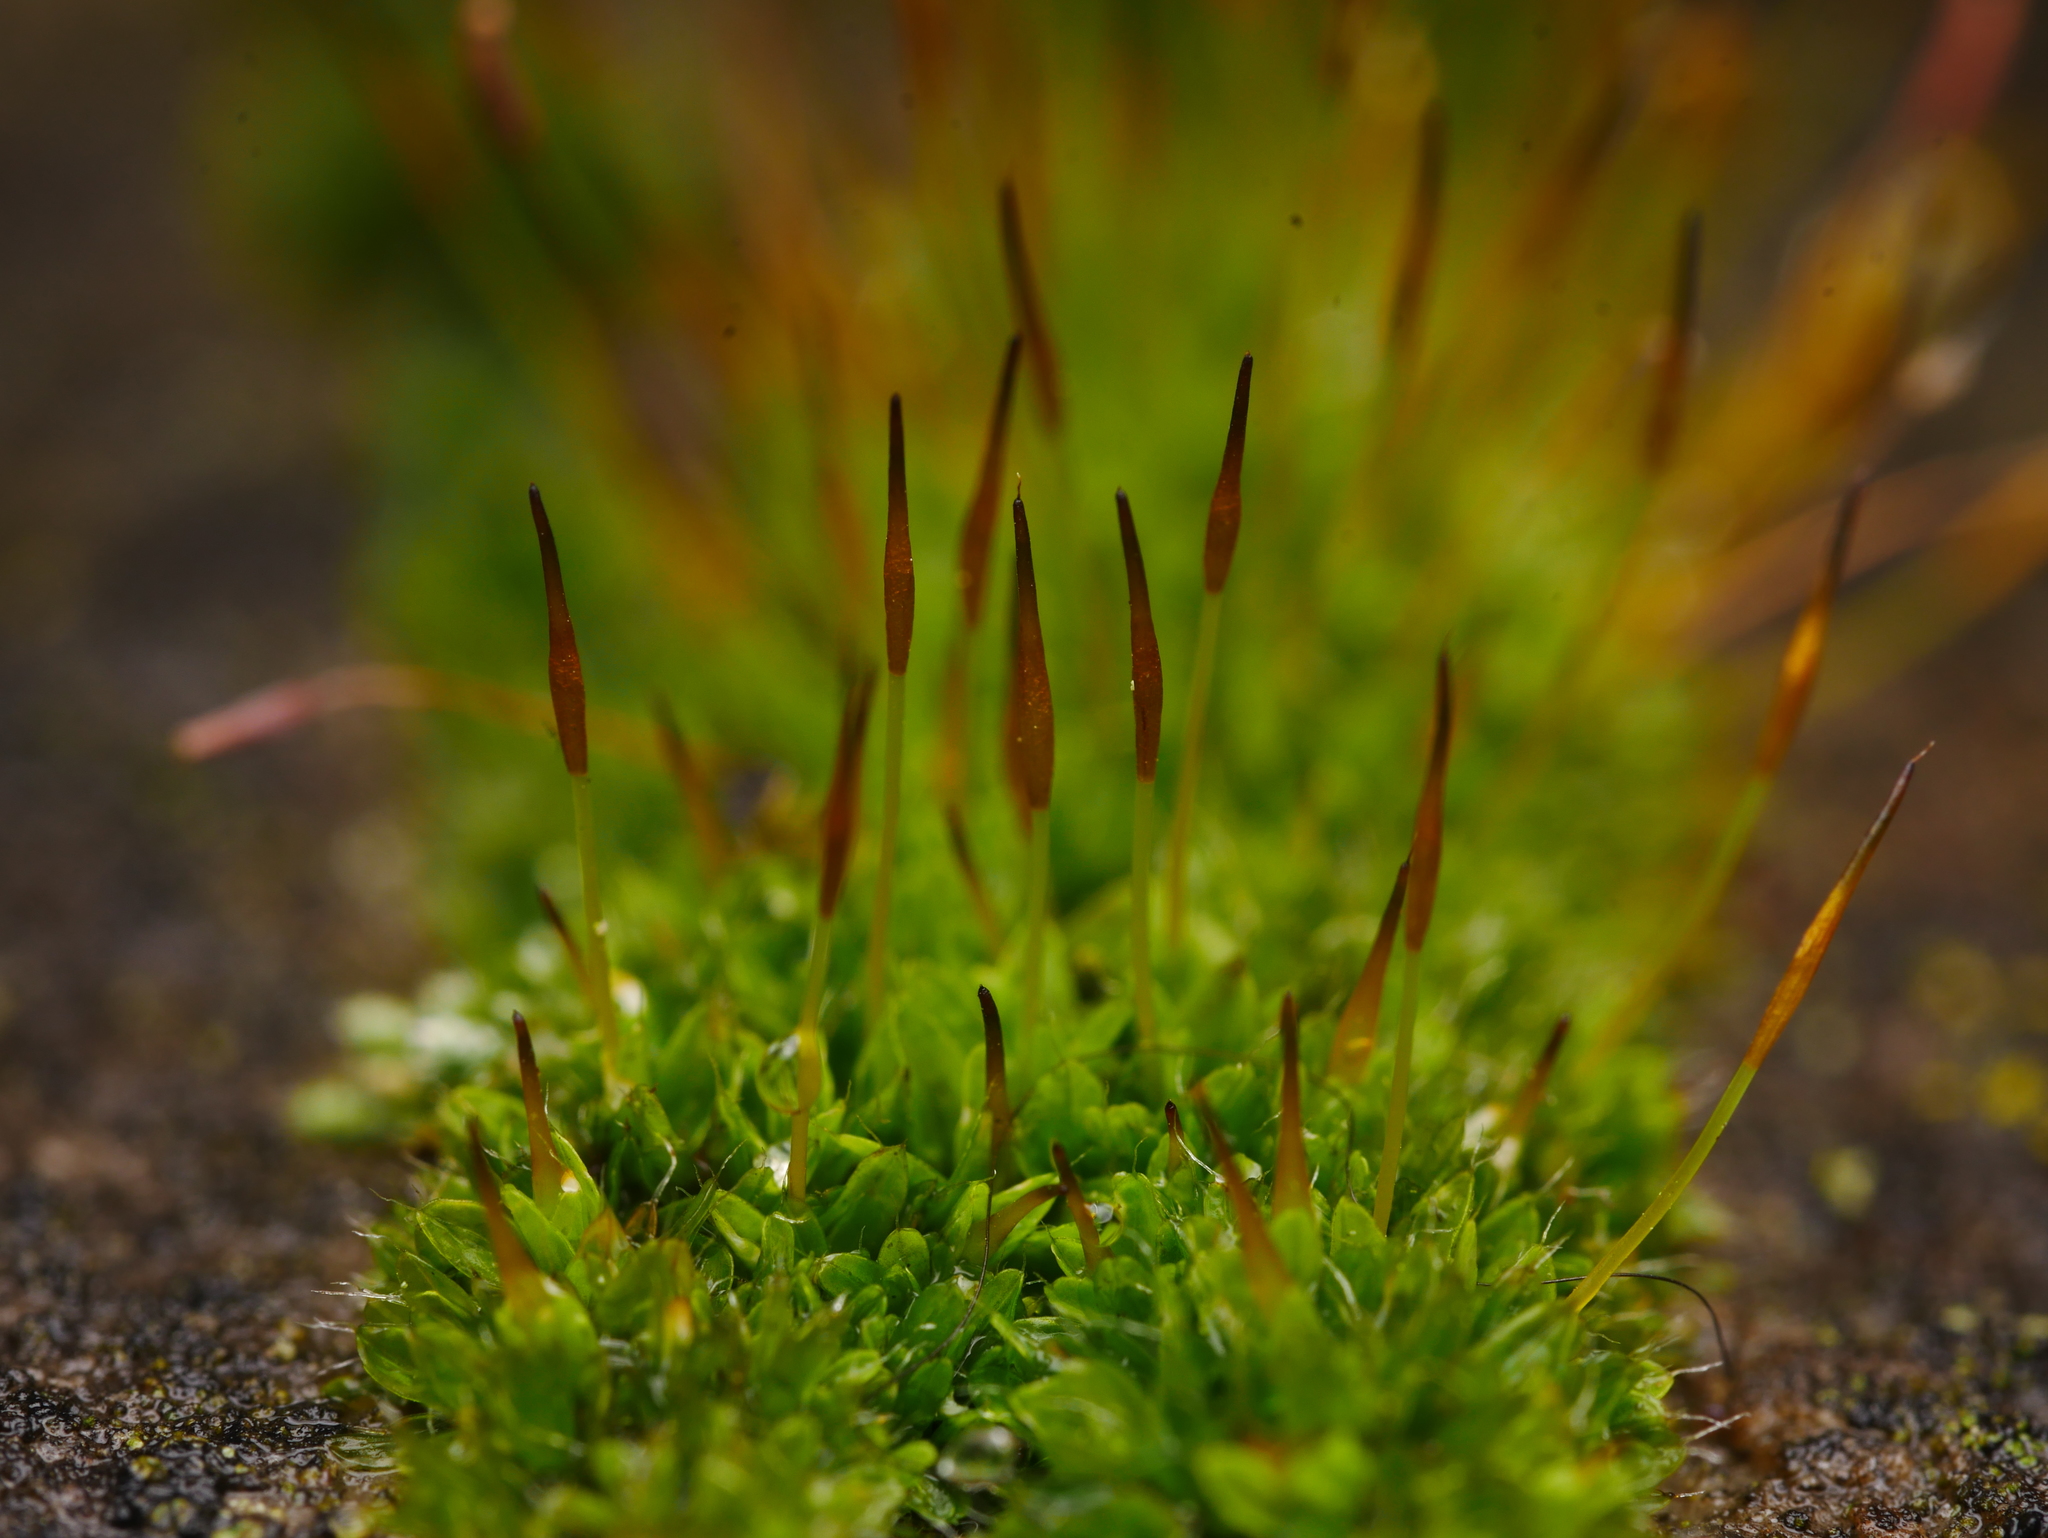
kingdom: Plantae
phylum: Bryophyta
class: Bryopsida
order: Pottiales
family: Pottiaceae
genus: Tortula
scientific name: Tortula muralis
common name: Wall screw-moss
